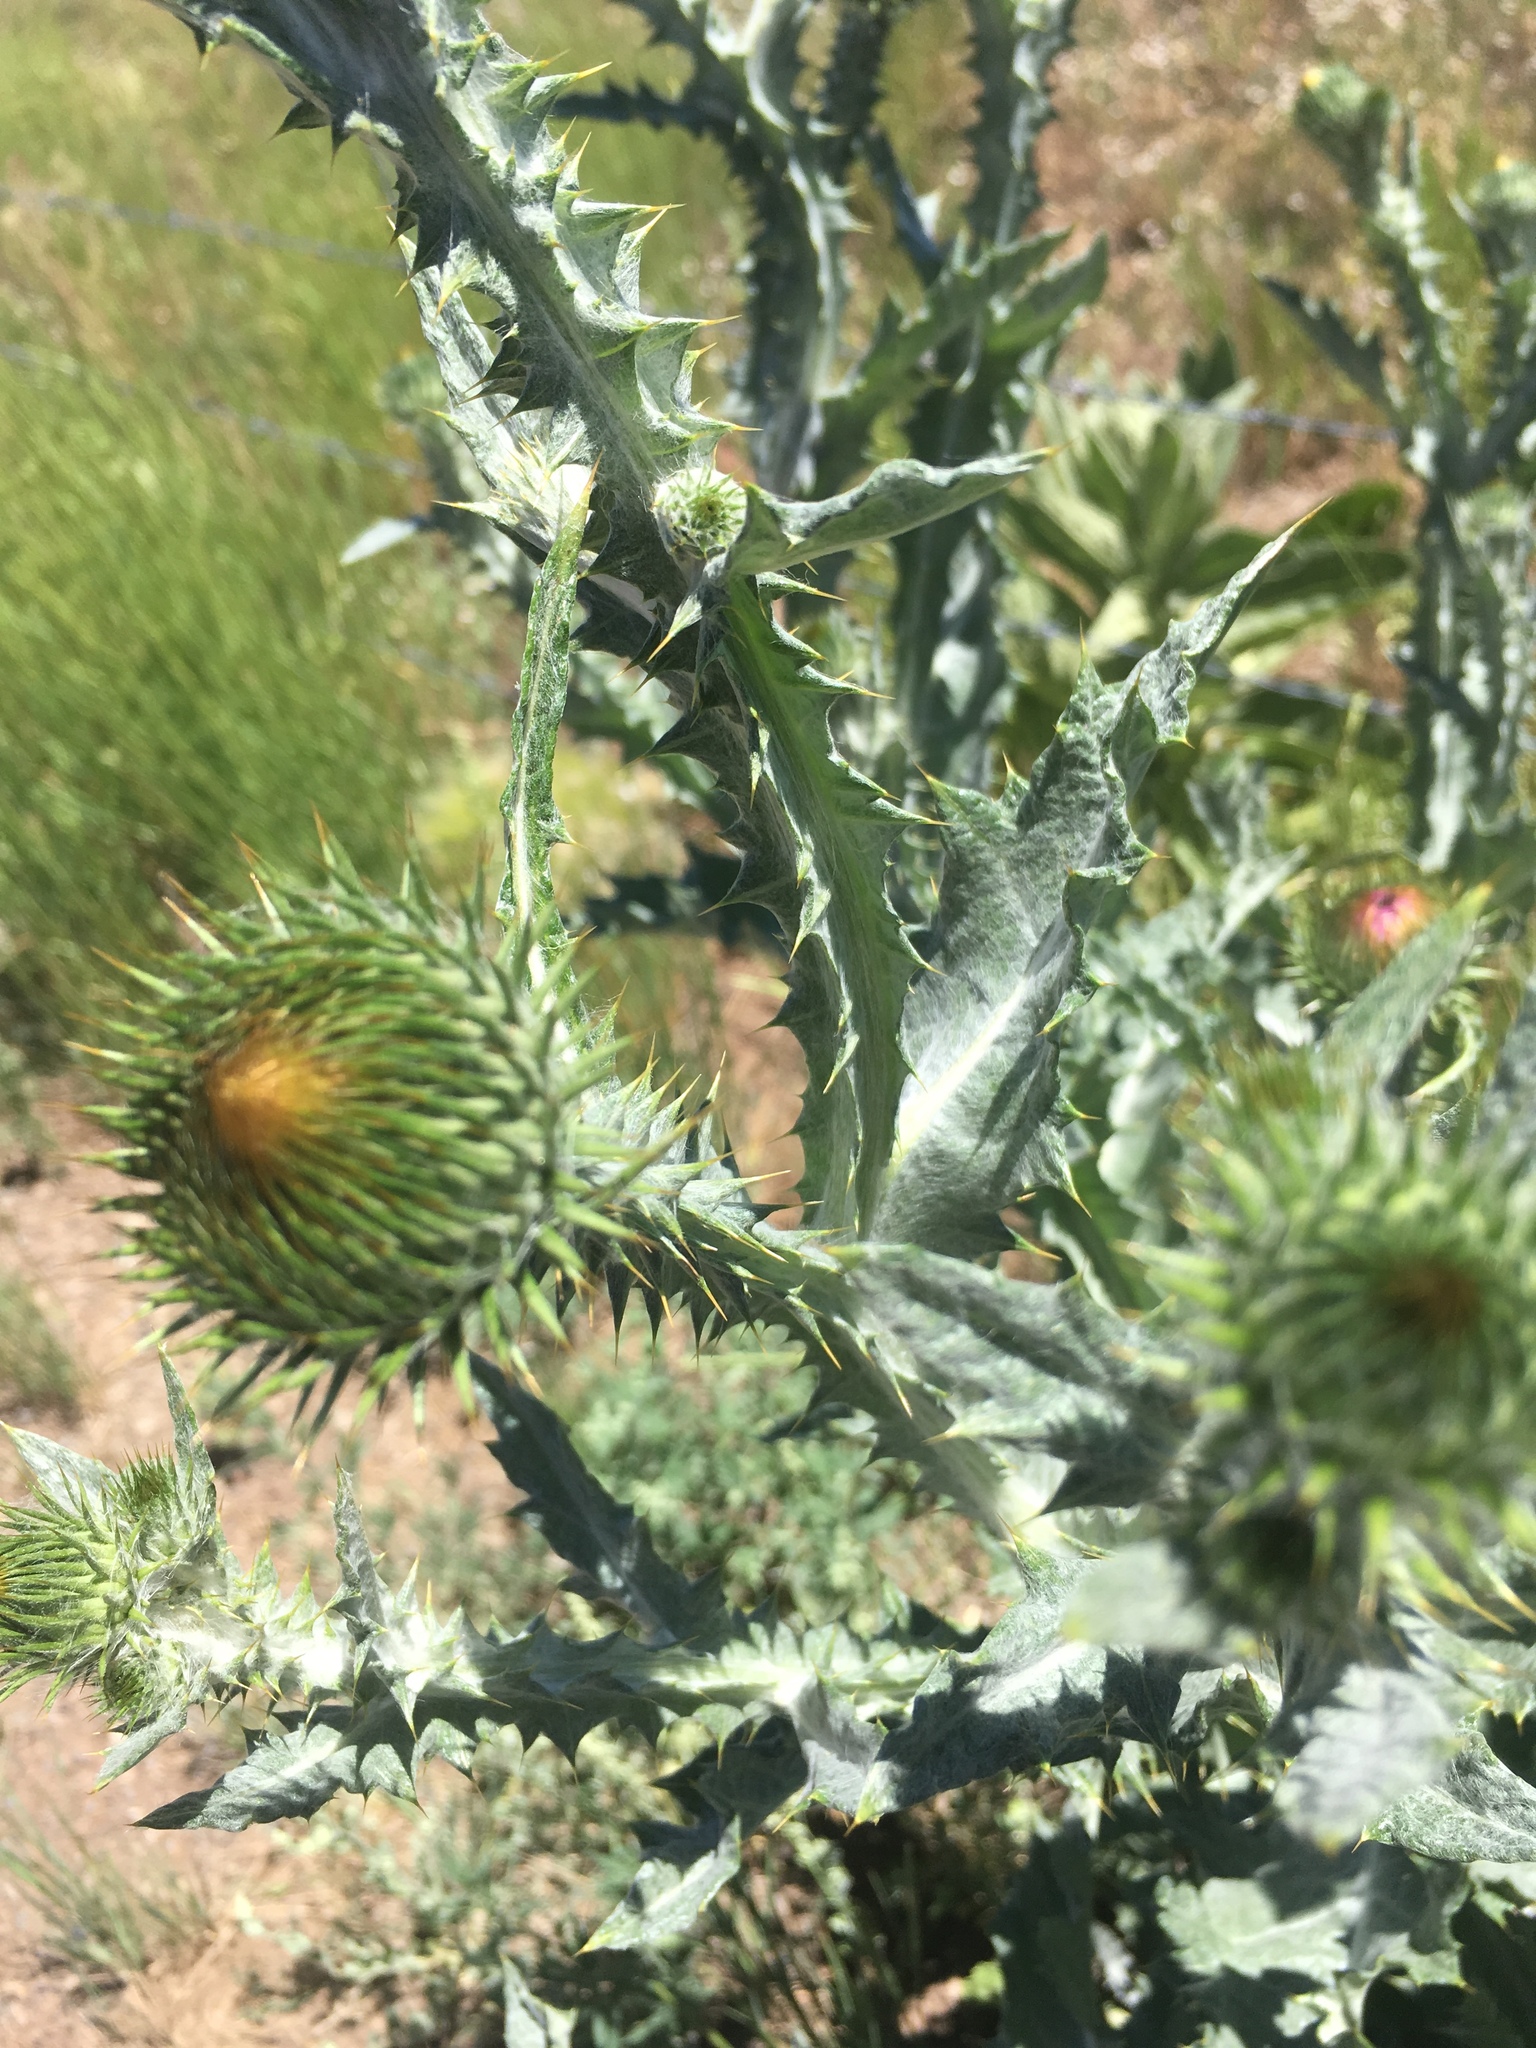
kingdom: Plantae
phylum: Tracheophyta
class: Magnoliopsida
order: Asterales
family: Asteraceae
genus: Onopordum
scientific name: Onopordum acanthium
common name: Scotch thistle
